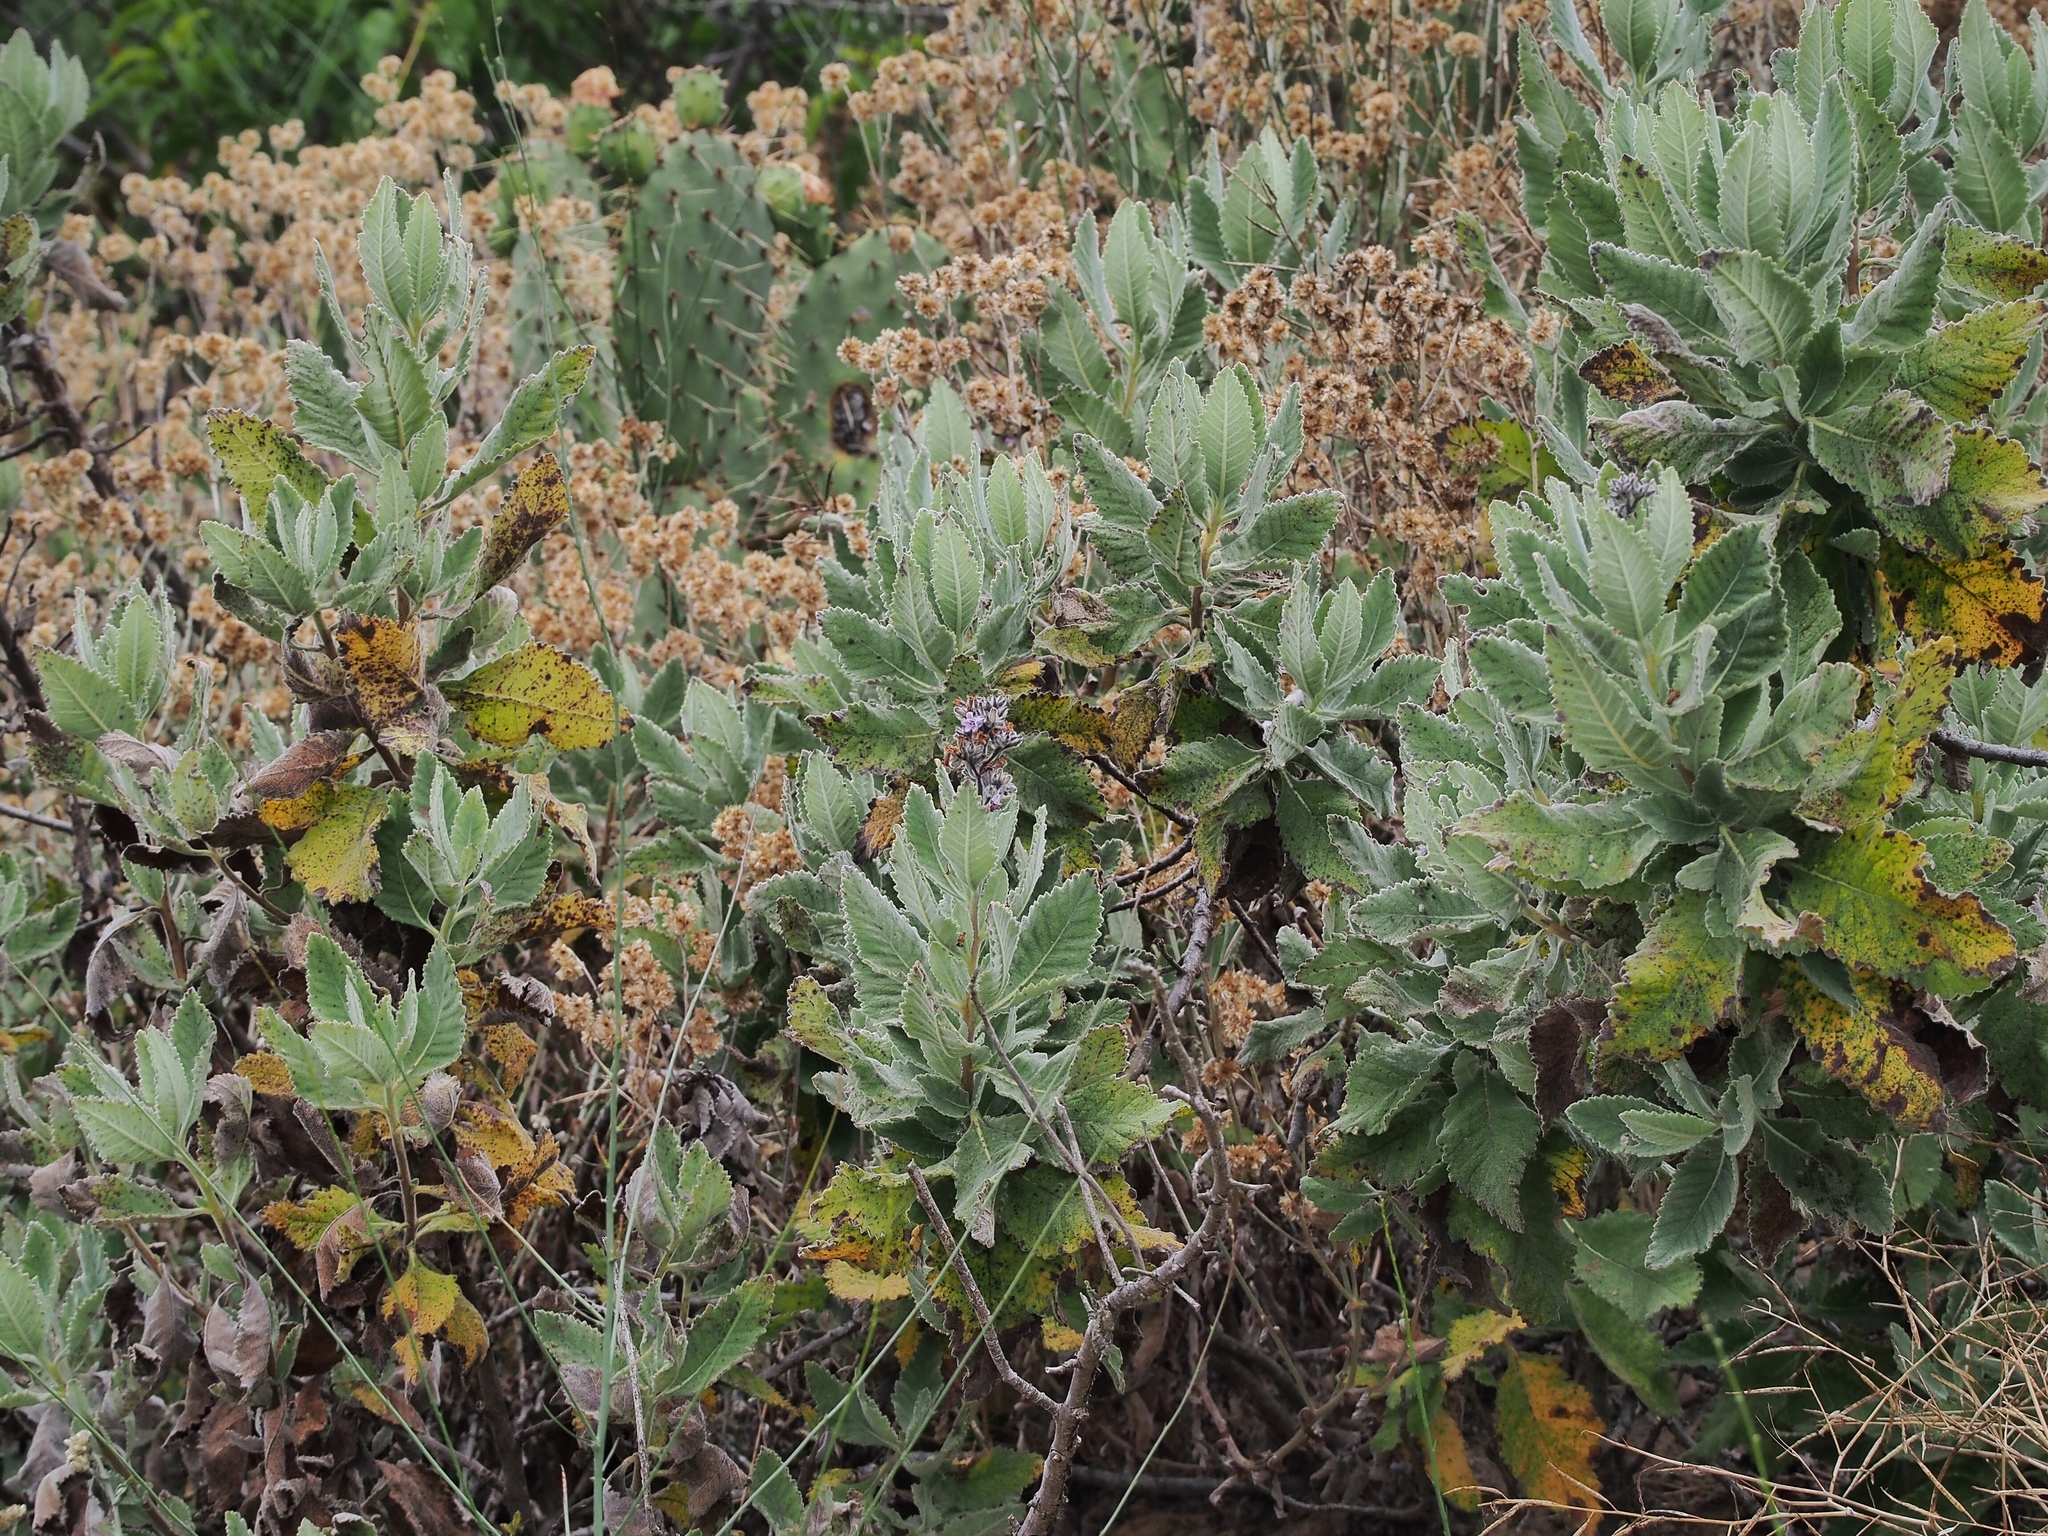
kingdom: Plantae
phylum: Tracheophyta
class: Magnoliopsida
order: Boraginales
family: Namaceae
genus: Eriodictyon
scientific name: Eriodictyon crassifolium
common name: Thick-leaf yerba-santa
